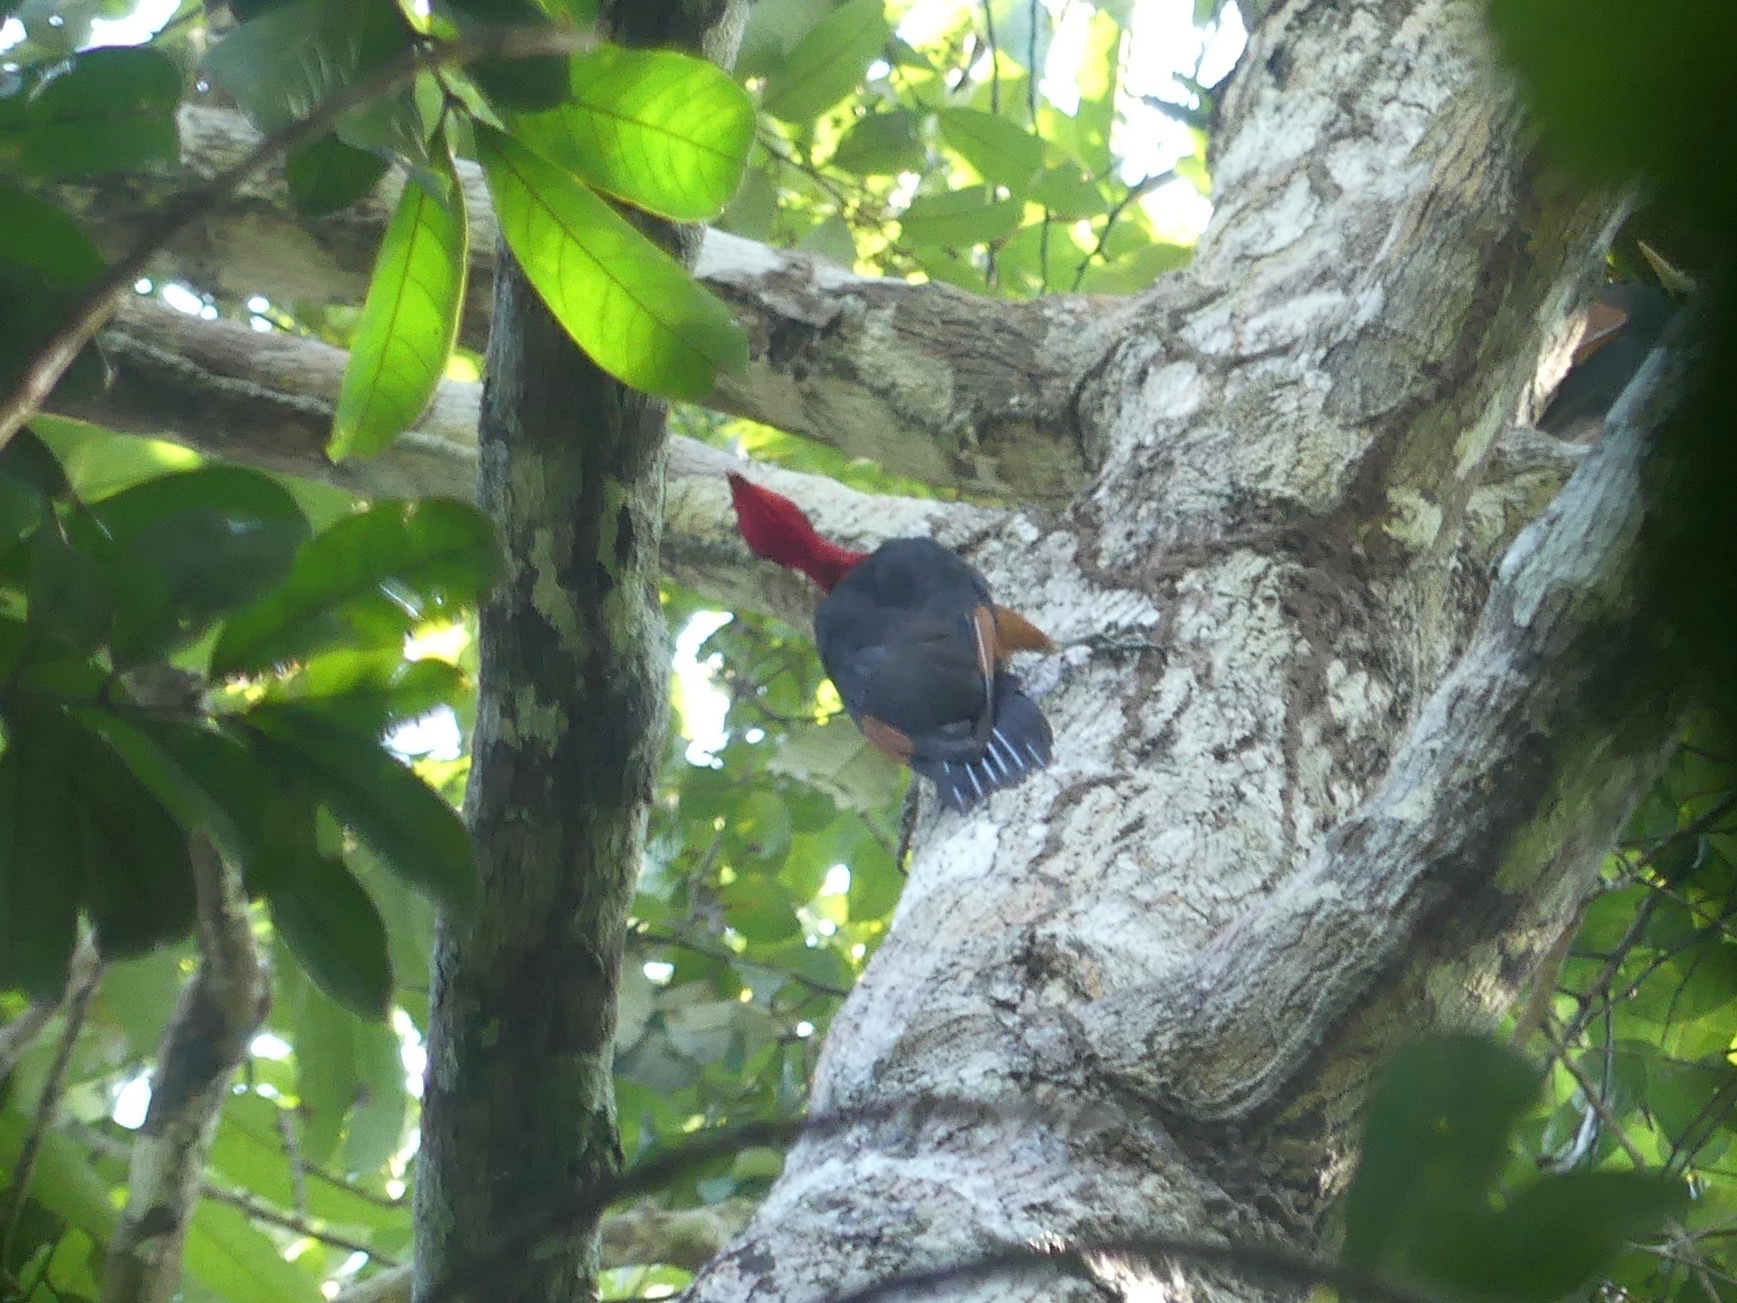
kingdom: Animalia
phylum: Chordata
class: Aves
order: Piciformes
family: Picidae
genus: Campephilus
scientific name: Campephilus rubricollis
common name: Red-necked woodpecker
